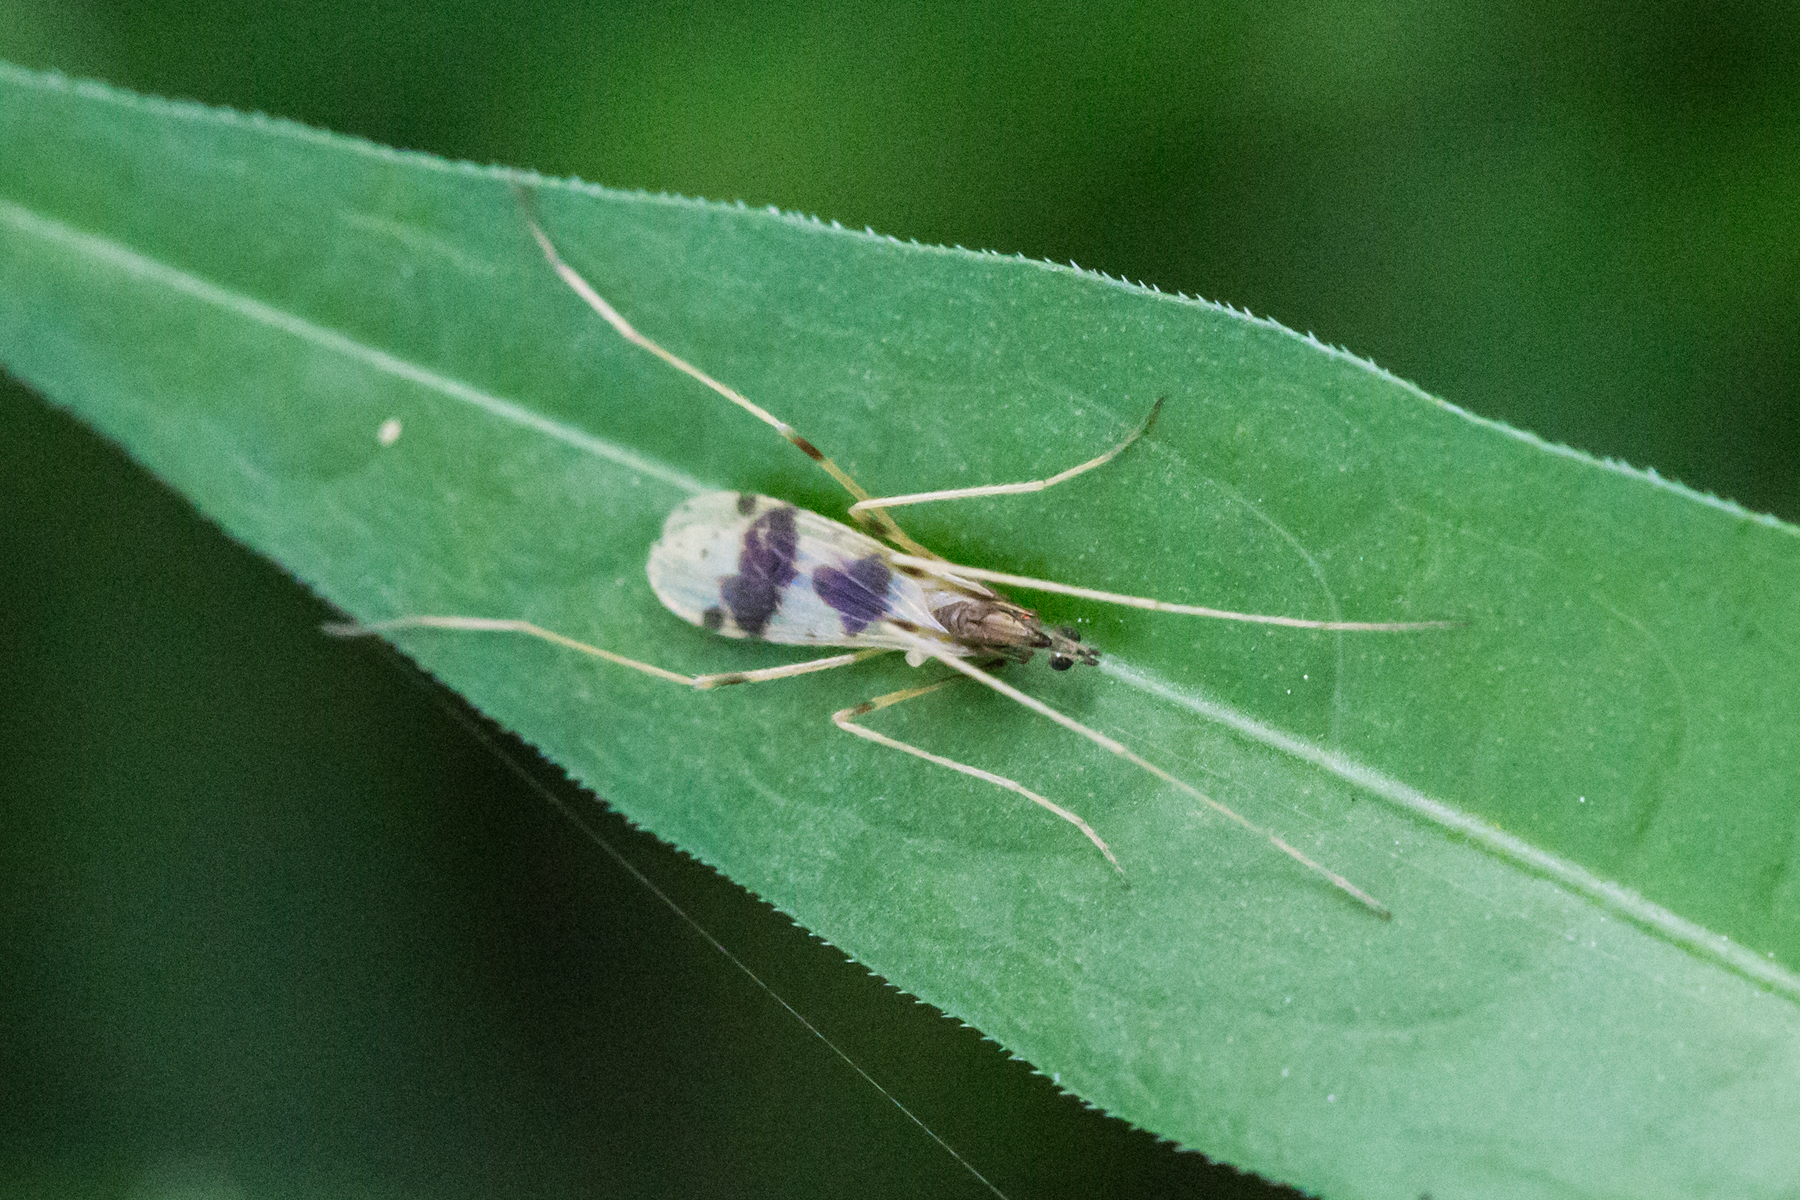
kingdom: Animalia
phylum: Arthropoda
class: Insecta
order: Diptera
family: Limoniidae
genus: Ilisia
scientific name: Ilisia venusta
